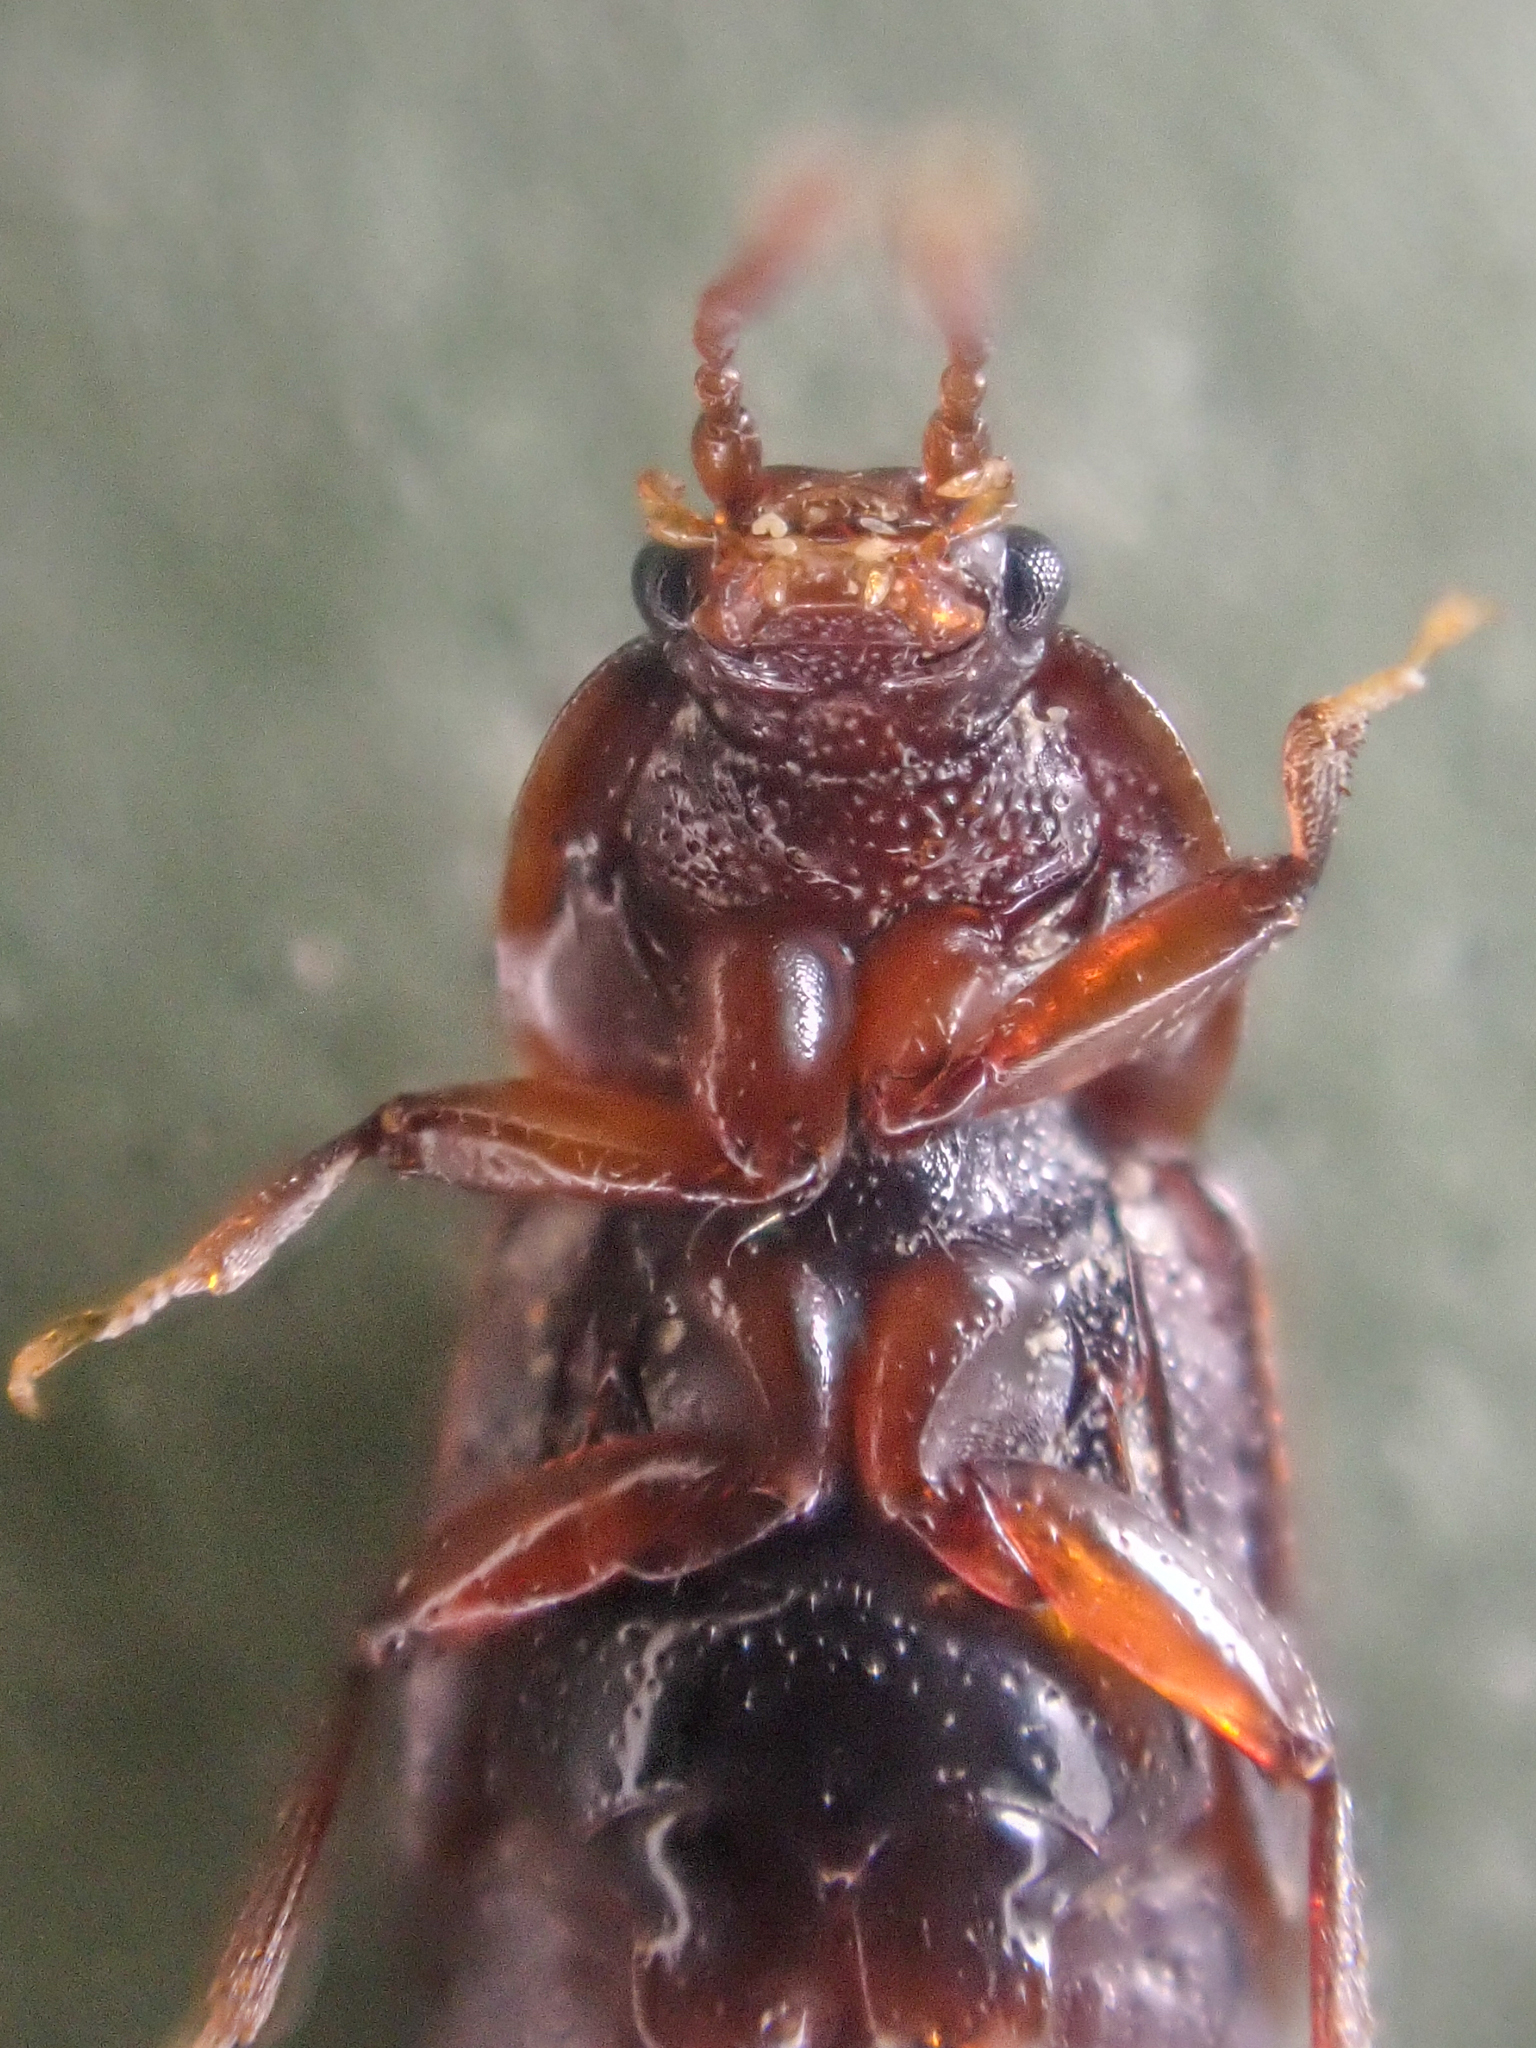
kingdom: Animalia
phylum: Arthropoda
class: Insecta
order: Coleoptera
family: Staphylinidae
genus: Acidota
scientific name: Acidota crenata
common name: Staph beetle
